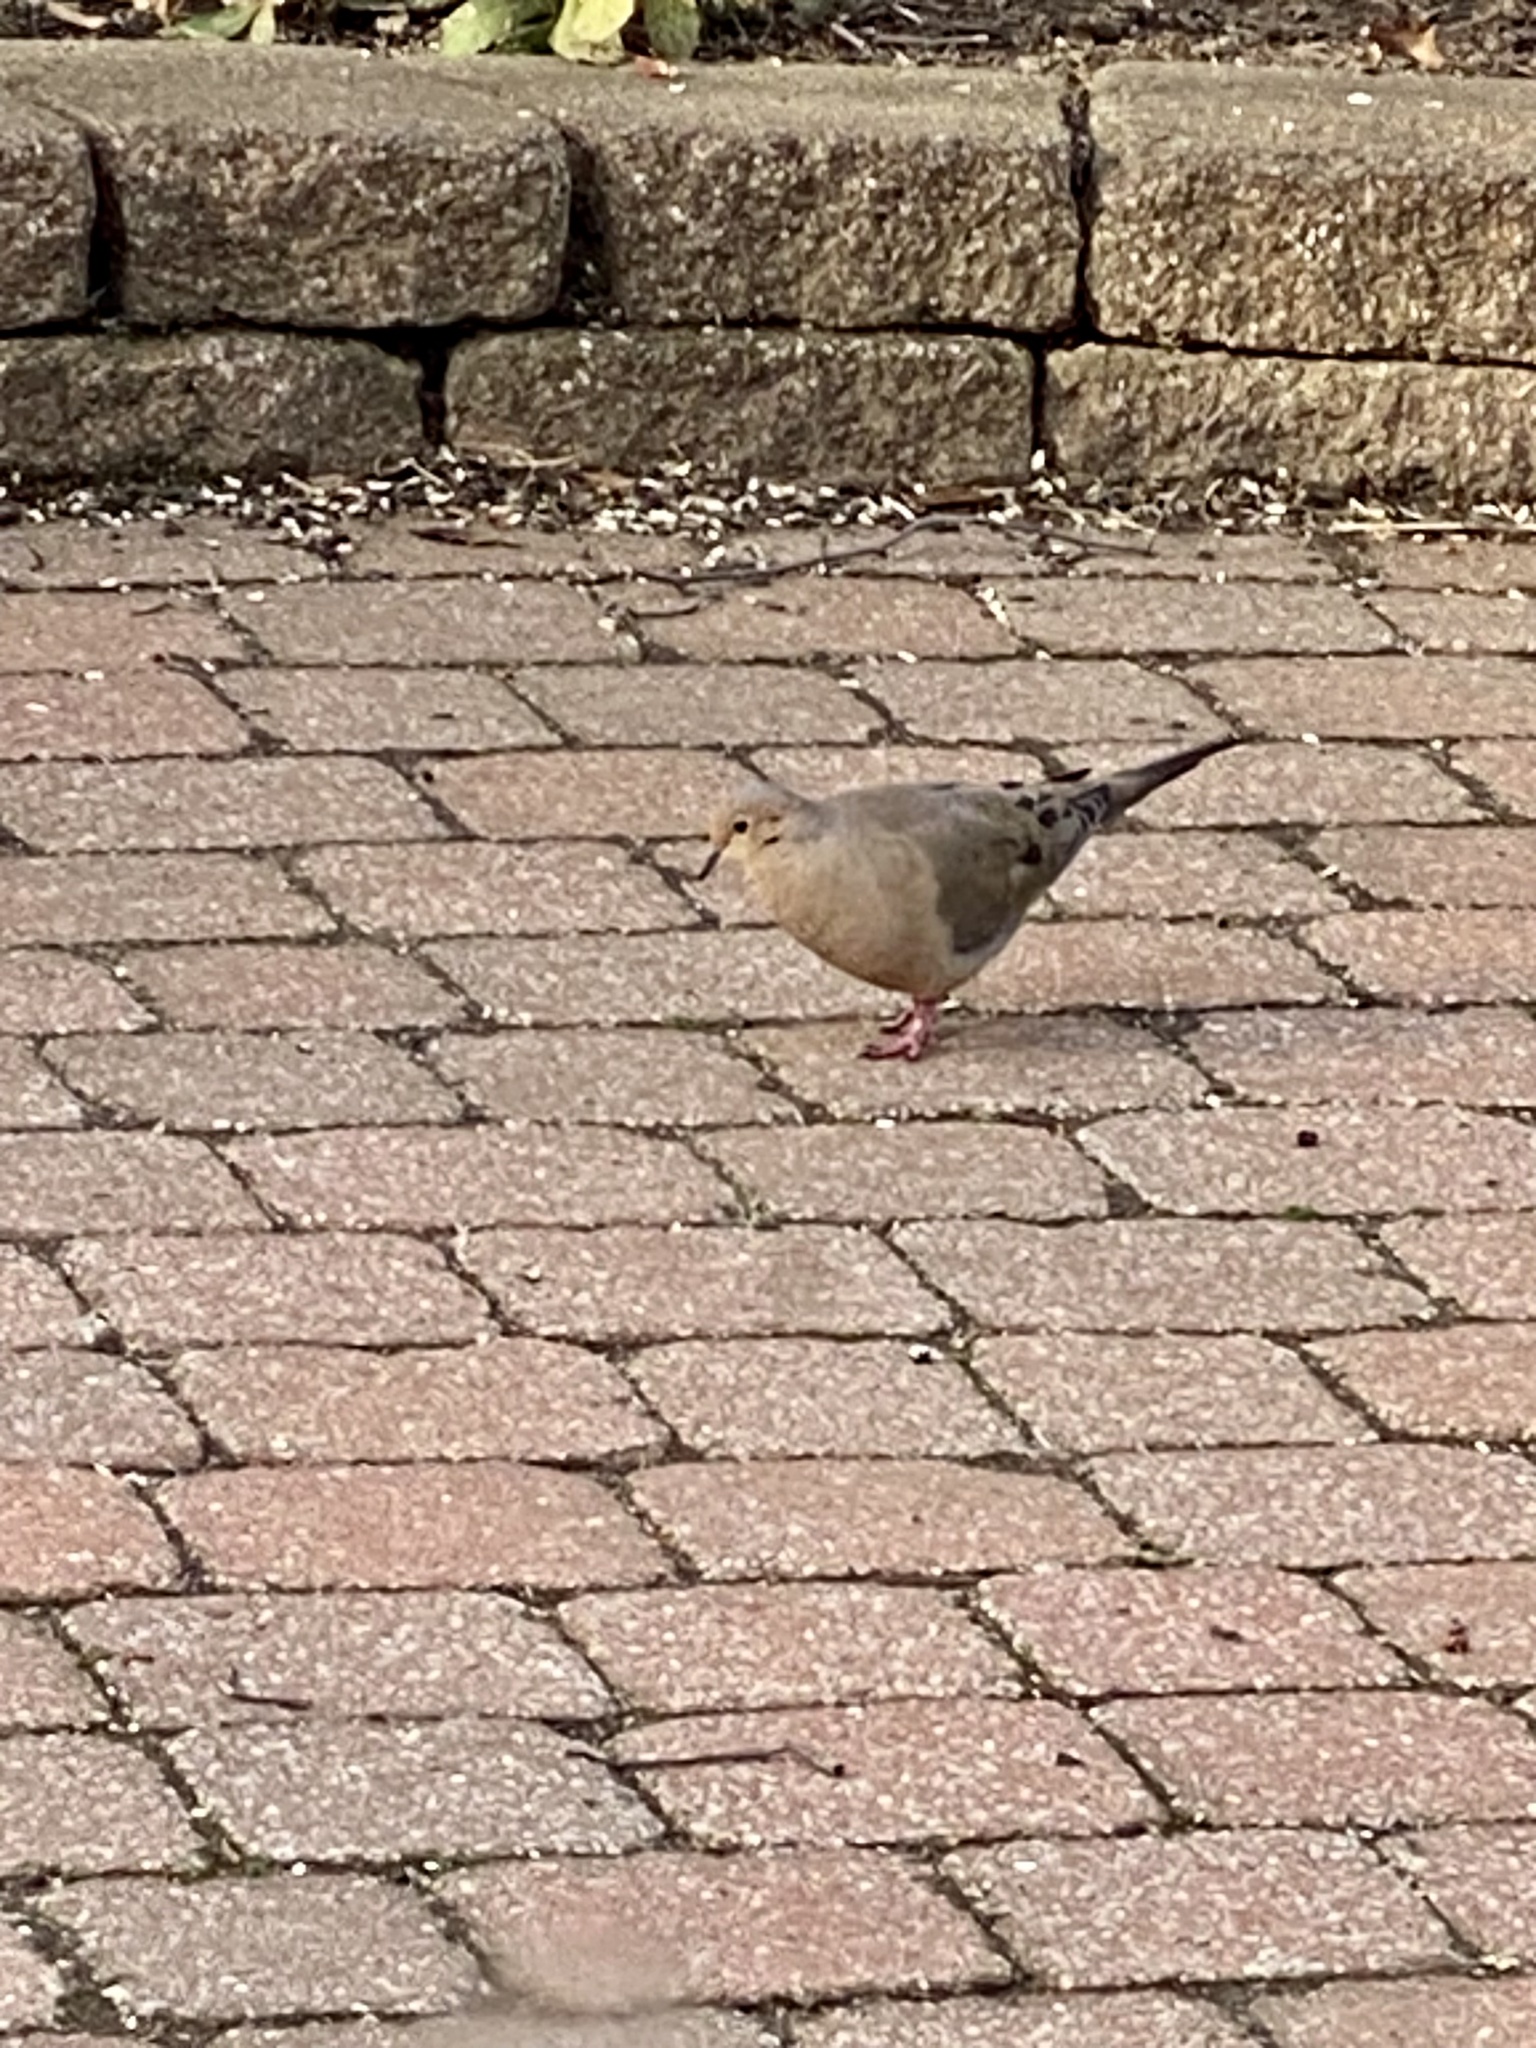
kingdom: Animalia
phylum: Chordata
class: Aves
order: Columbiformes
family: Columbidae
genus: Zenaida
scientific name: Zenaida macroura
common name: Mourning dove
